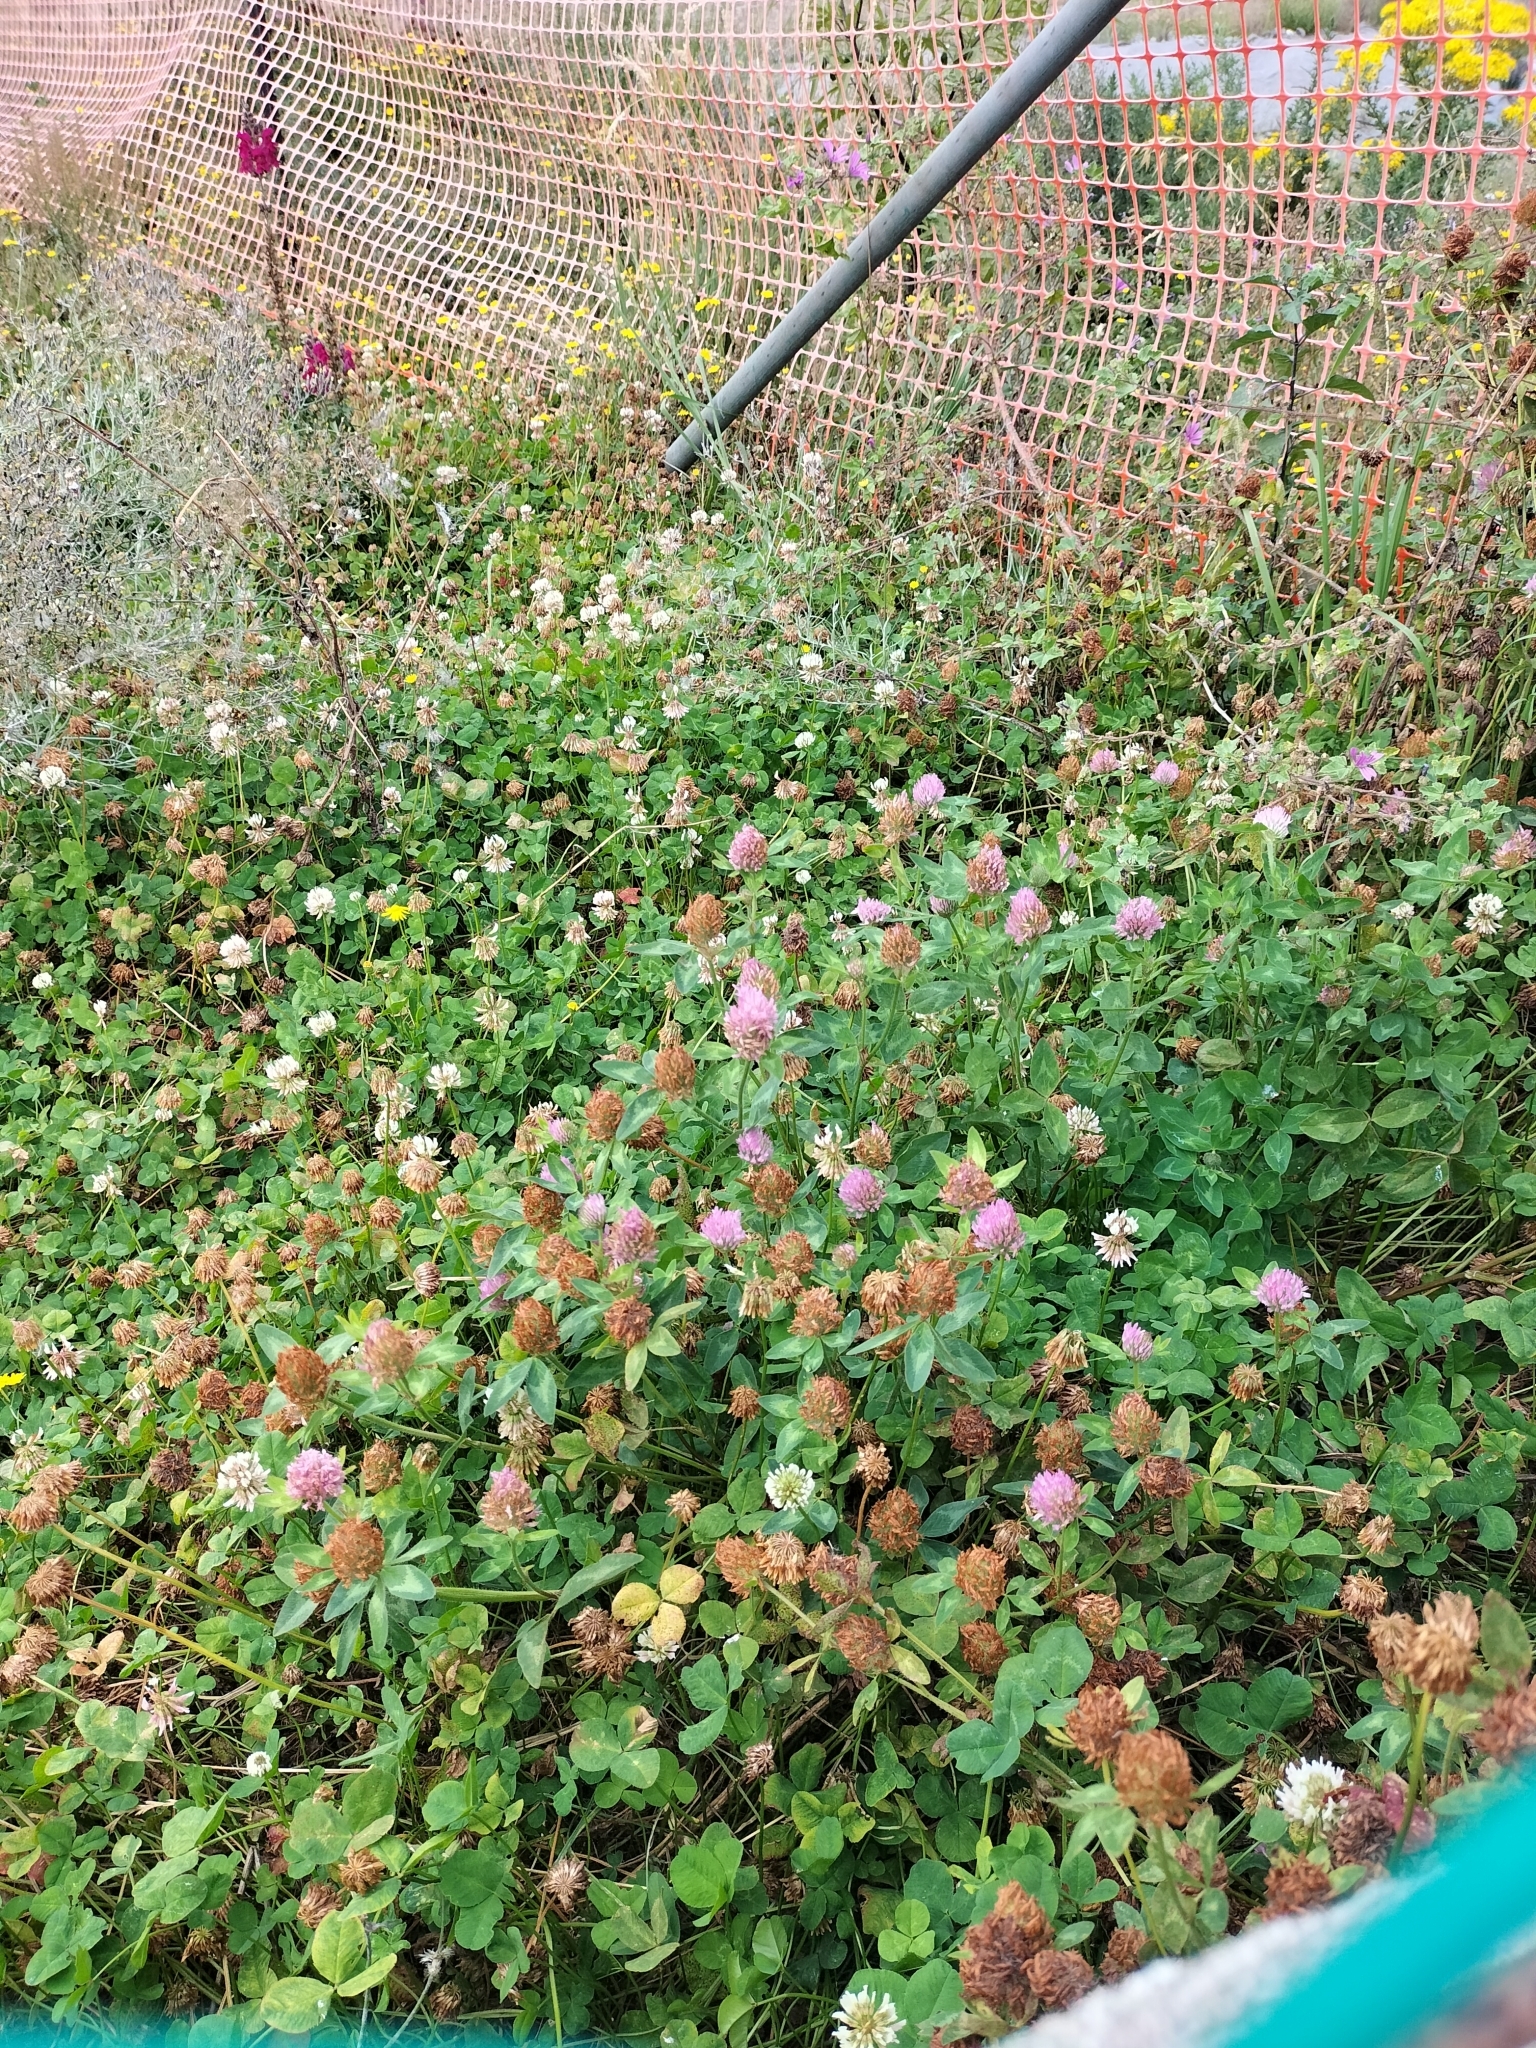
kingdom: Plantae
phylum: Tracheophyta
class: Magnoliopsida
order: Fabales
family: Fabaceae
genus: Trifolium
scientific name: Trifolium pratense
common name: Red clover
